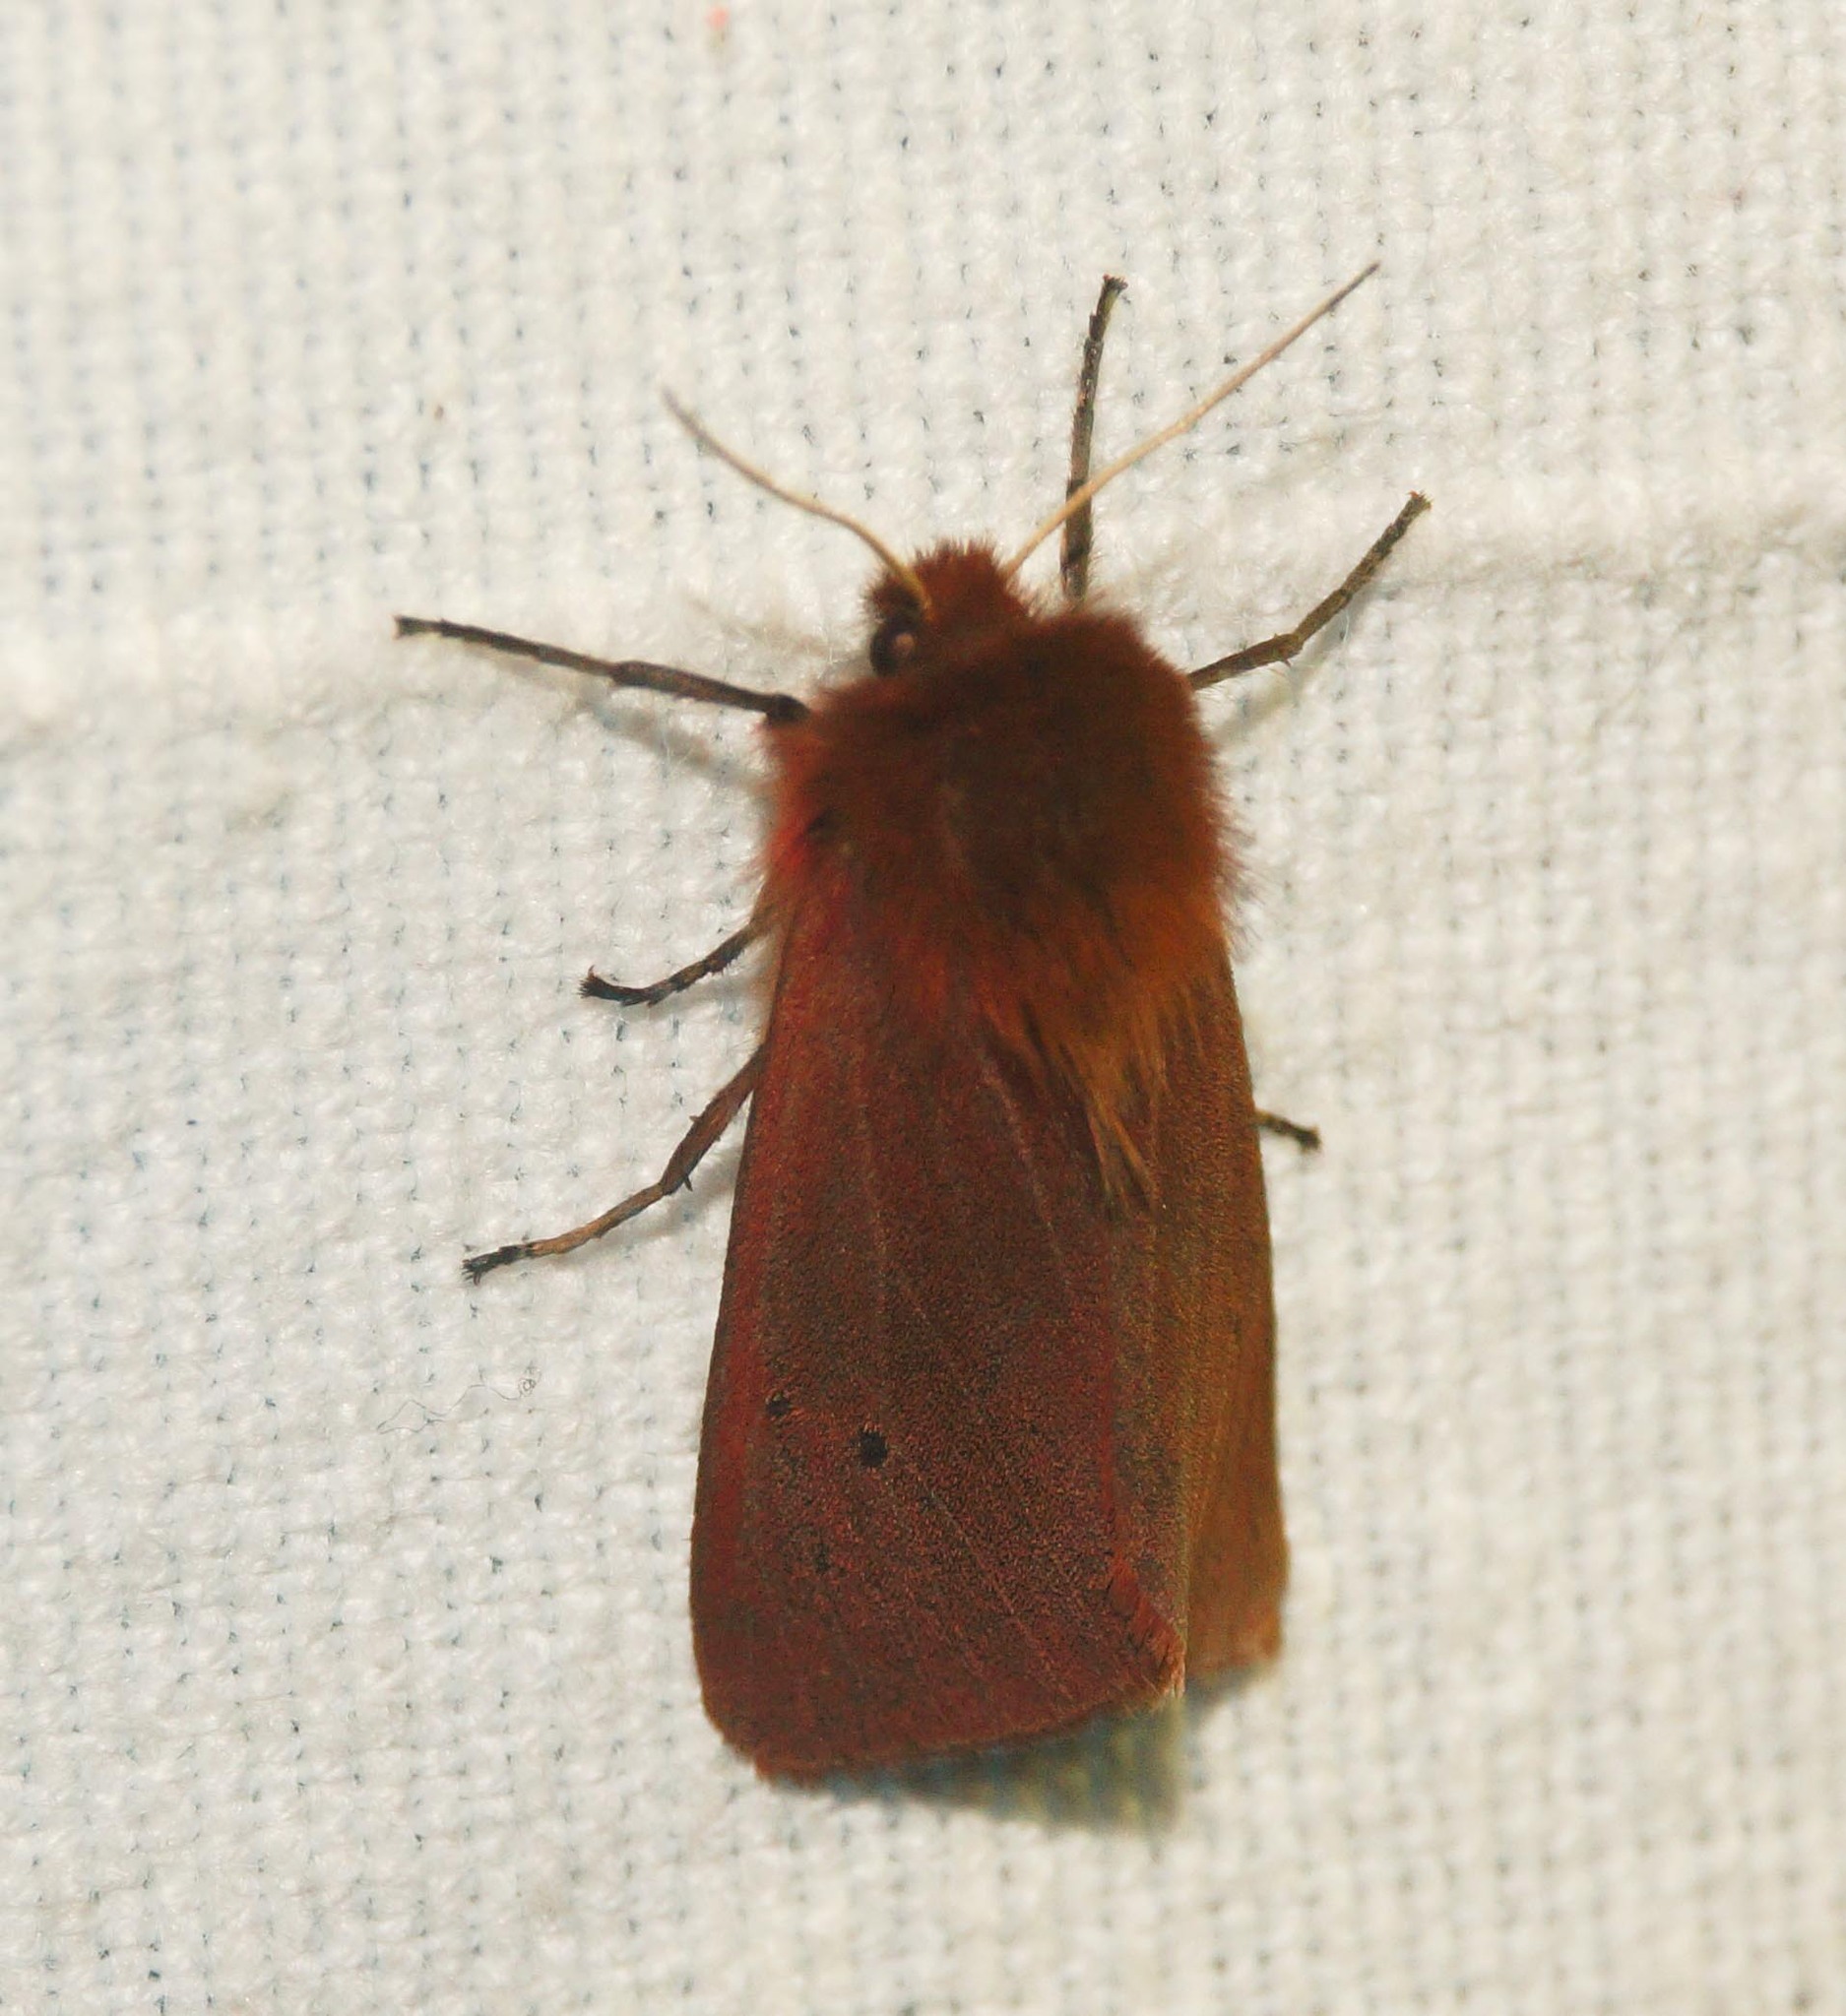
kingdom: Animalia
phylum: Arthropoda
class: Insecta
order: Lepidoptera
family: Erebidae
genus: Phragmatobia
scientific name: Phragmatobia fuliginosa
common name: Ruby tiger
